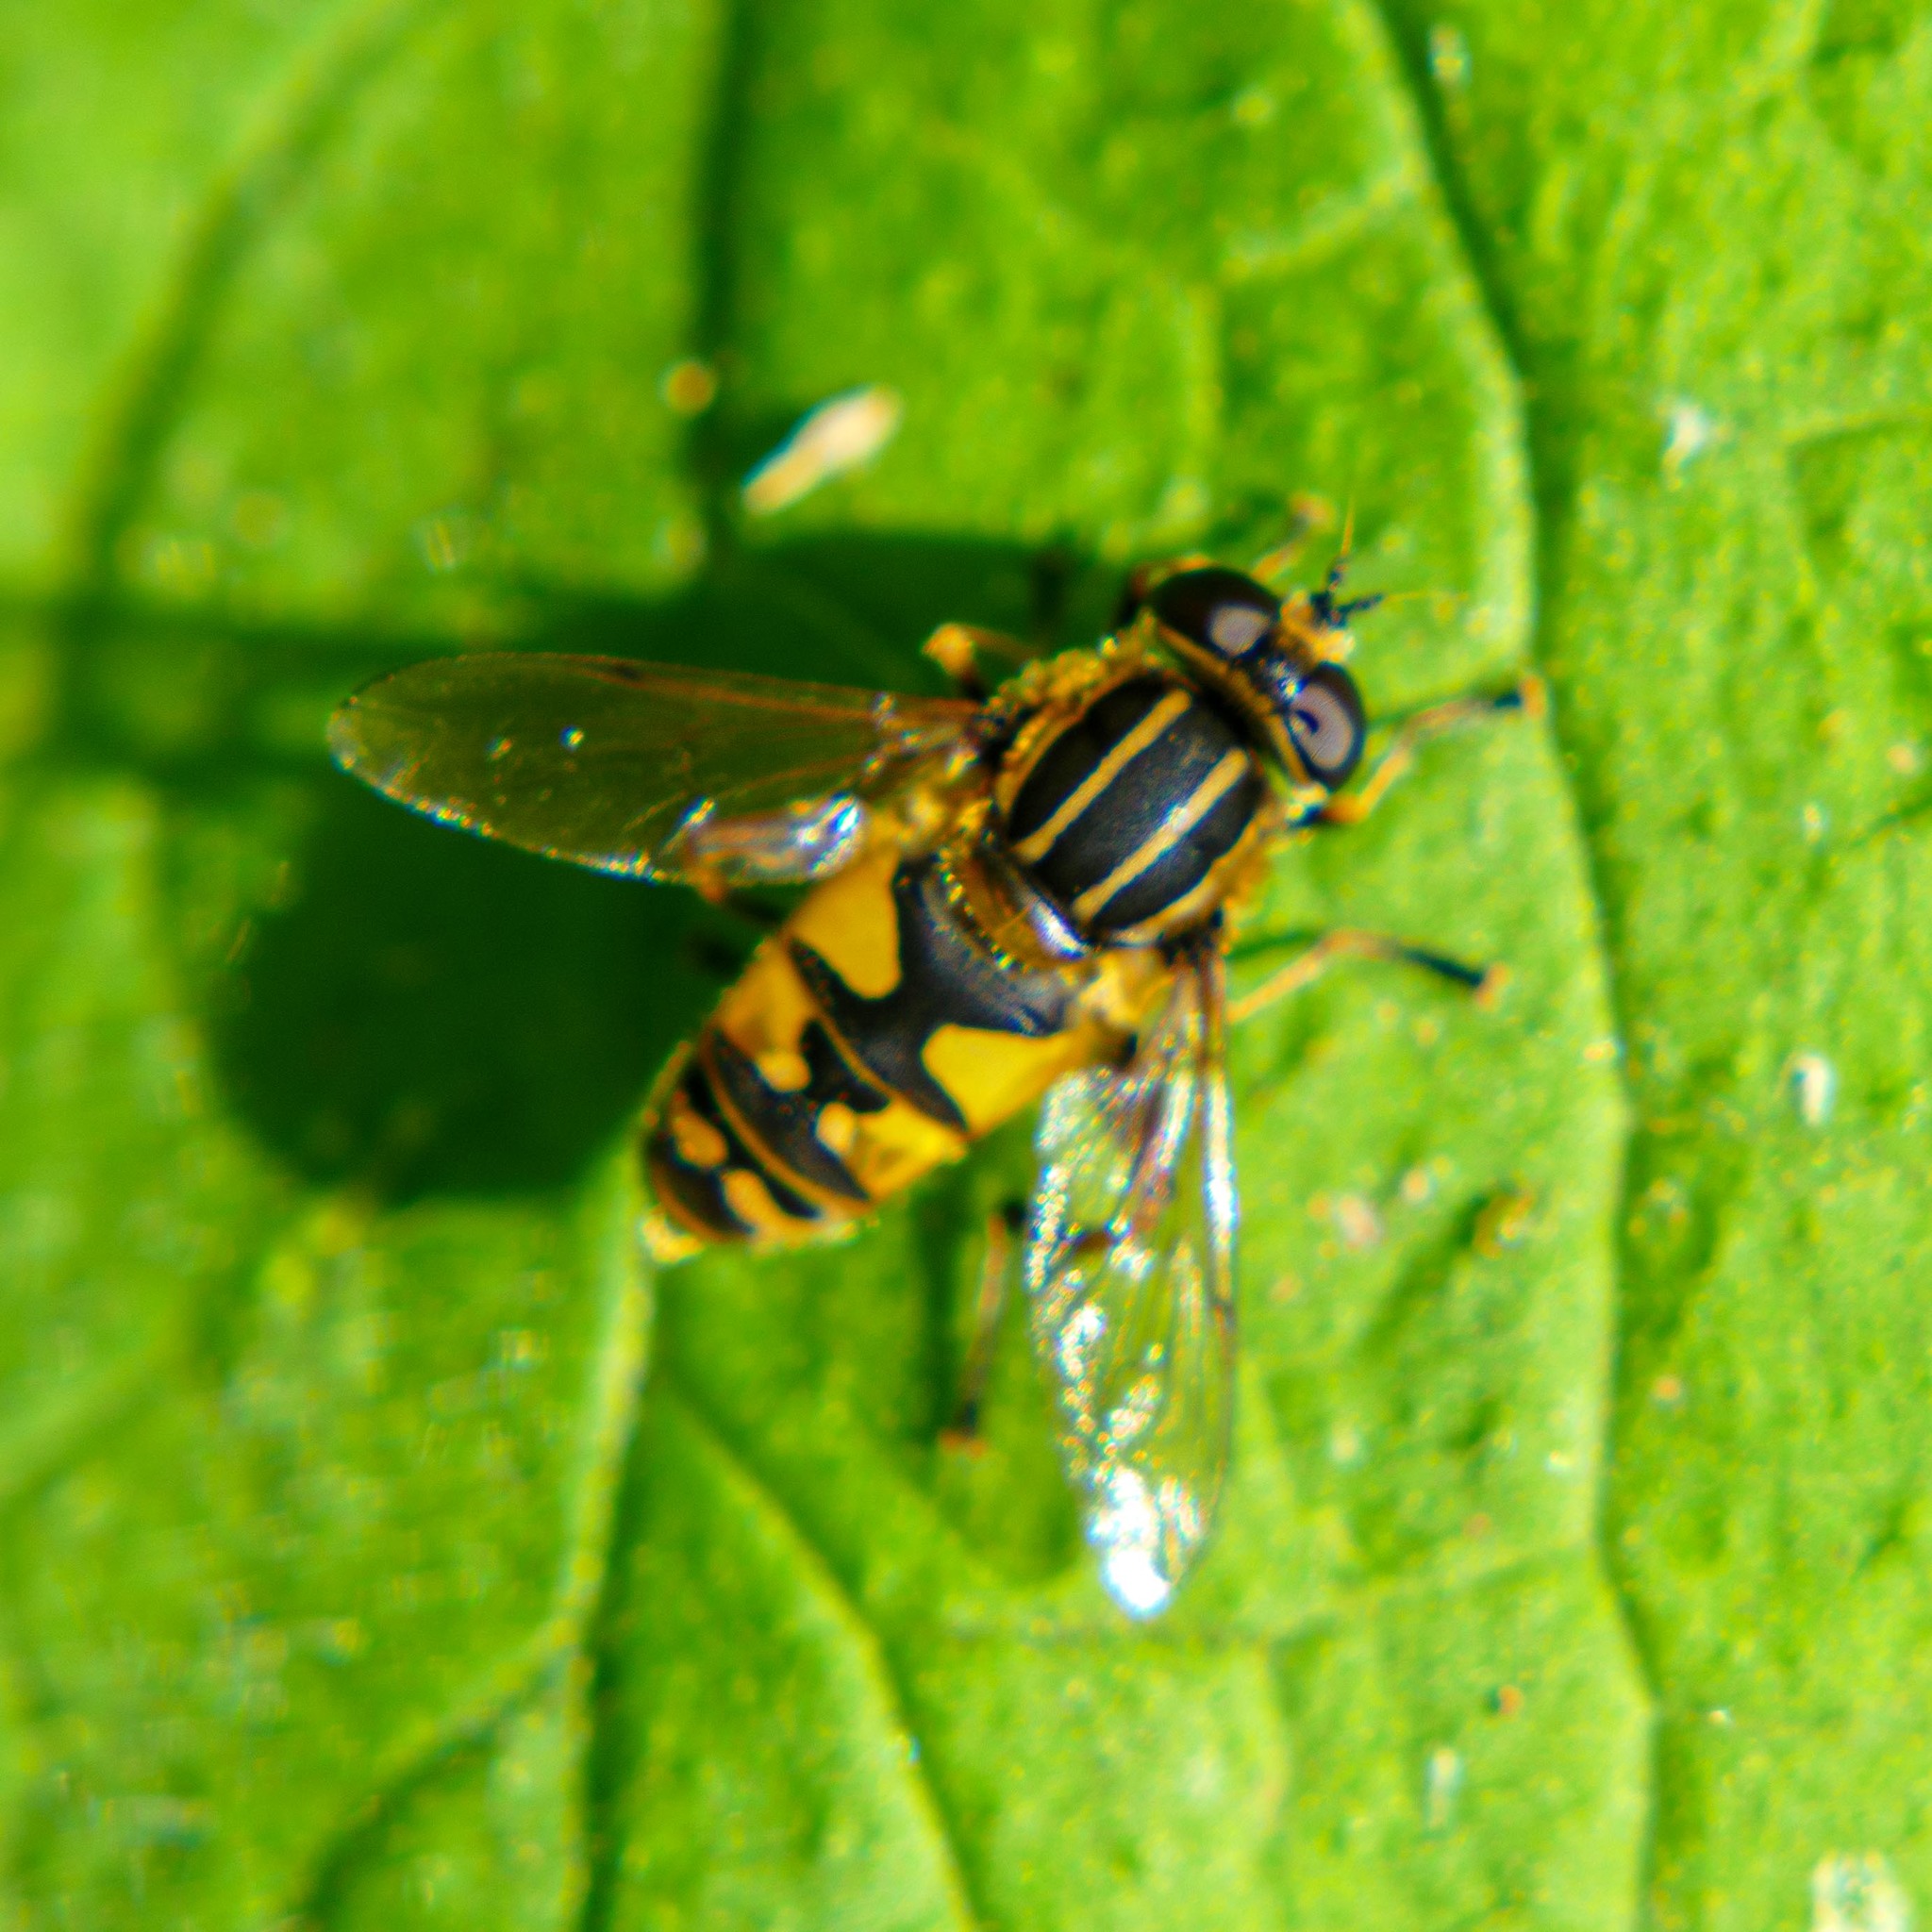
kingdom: Animalia
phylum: Arthropoda
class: Insecta
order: Diptera
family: Syrphidae
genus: Helophilus
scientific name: Helophilus pendulus
